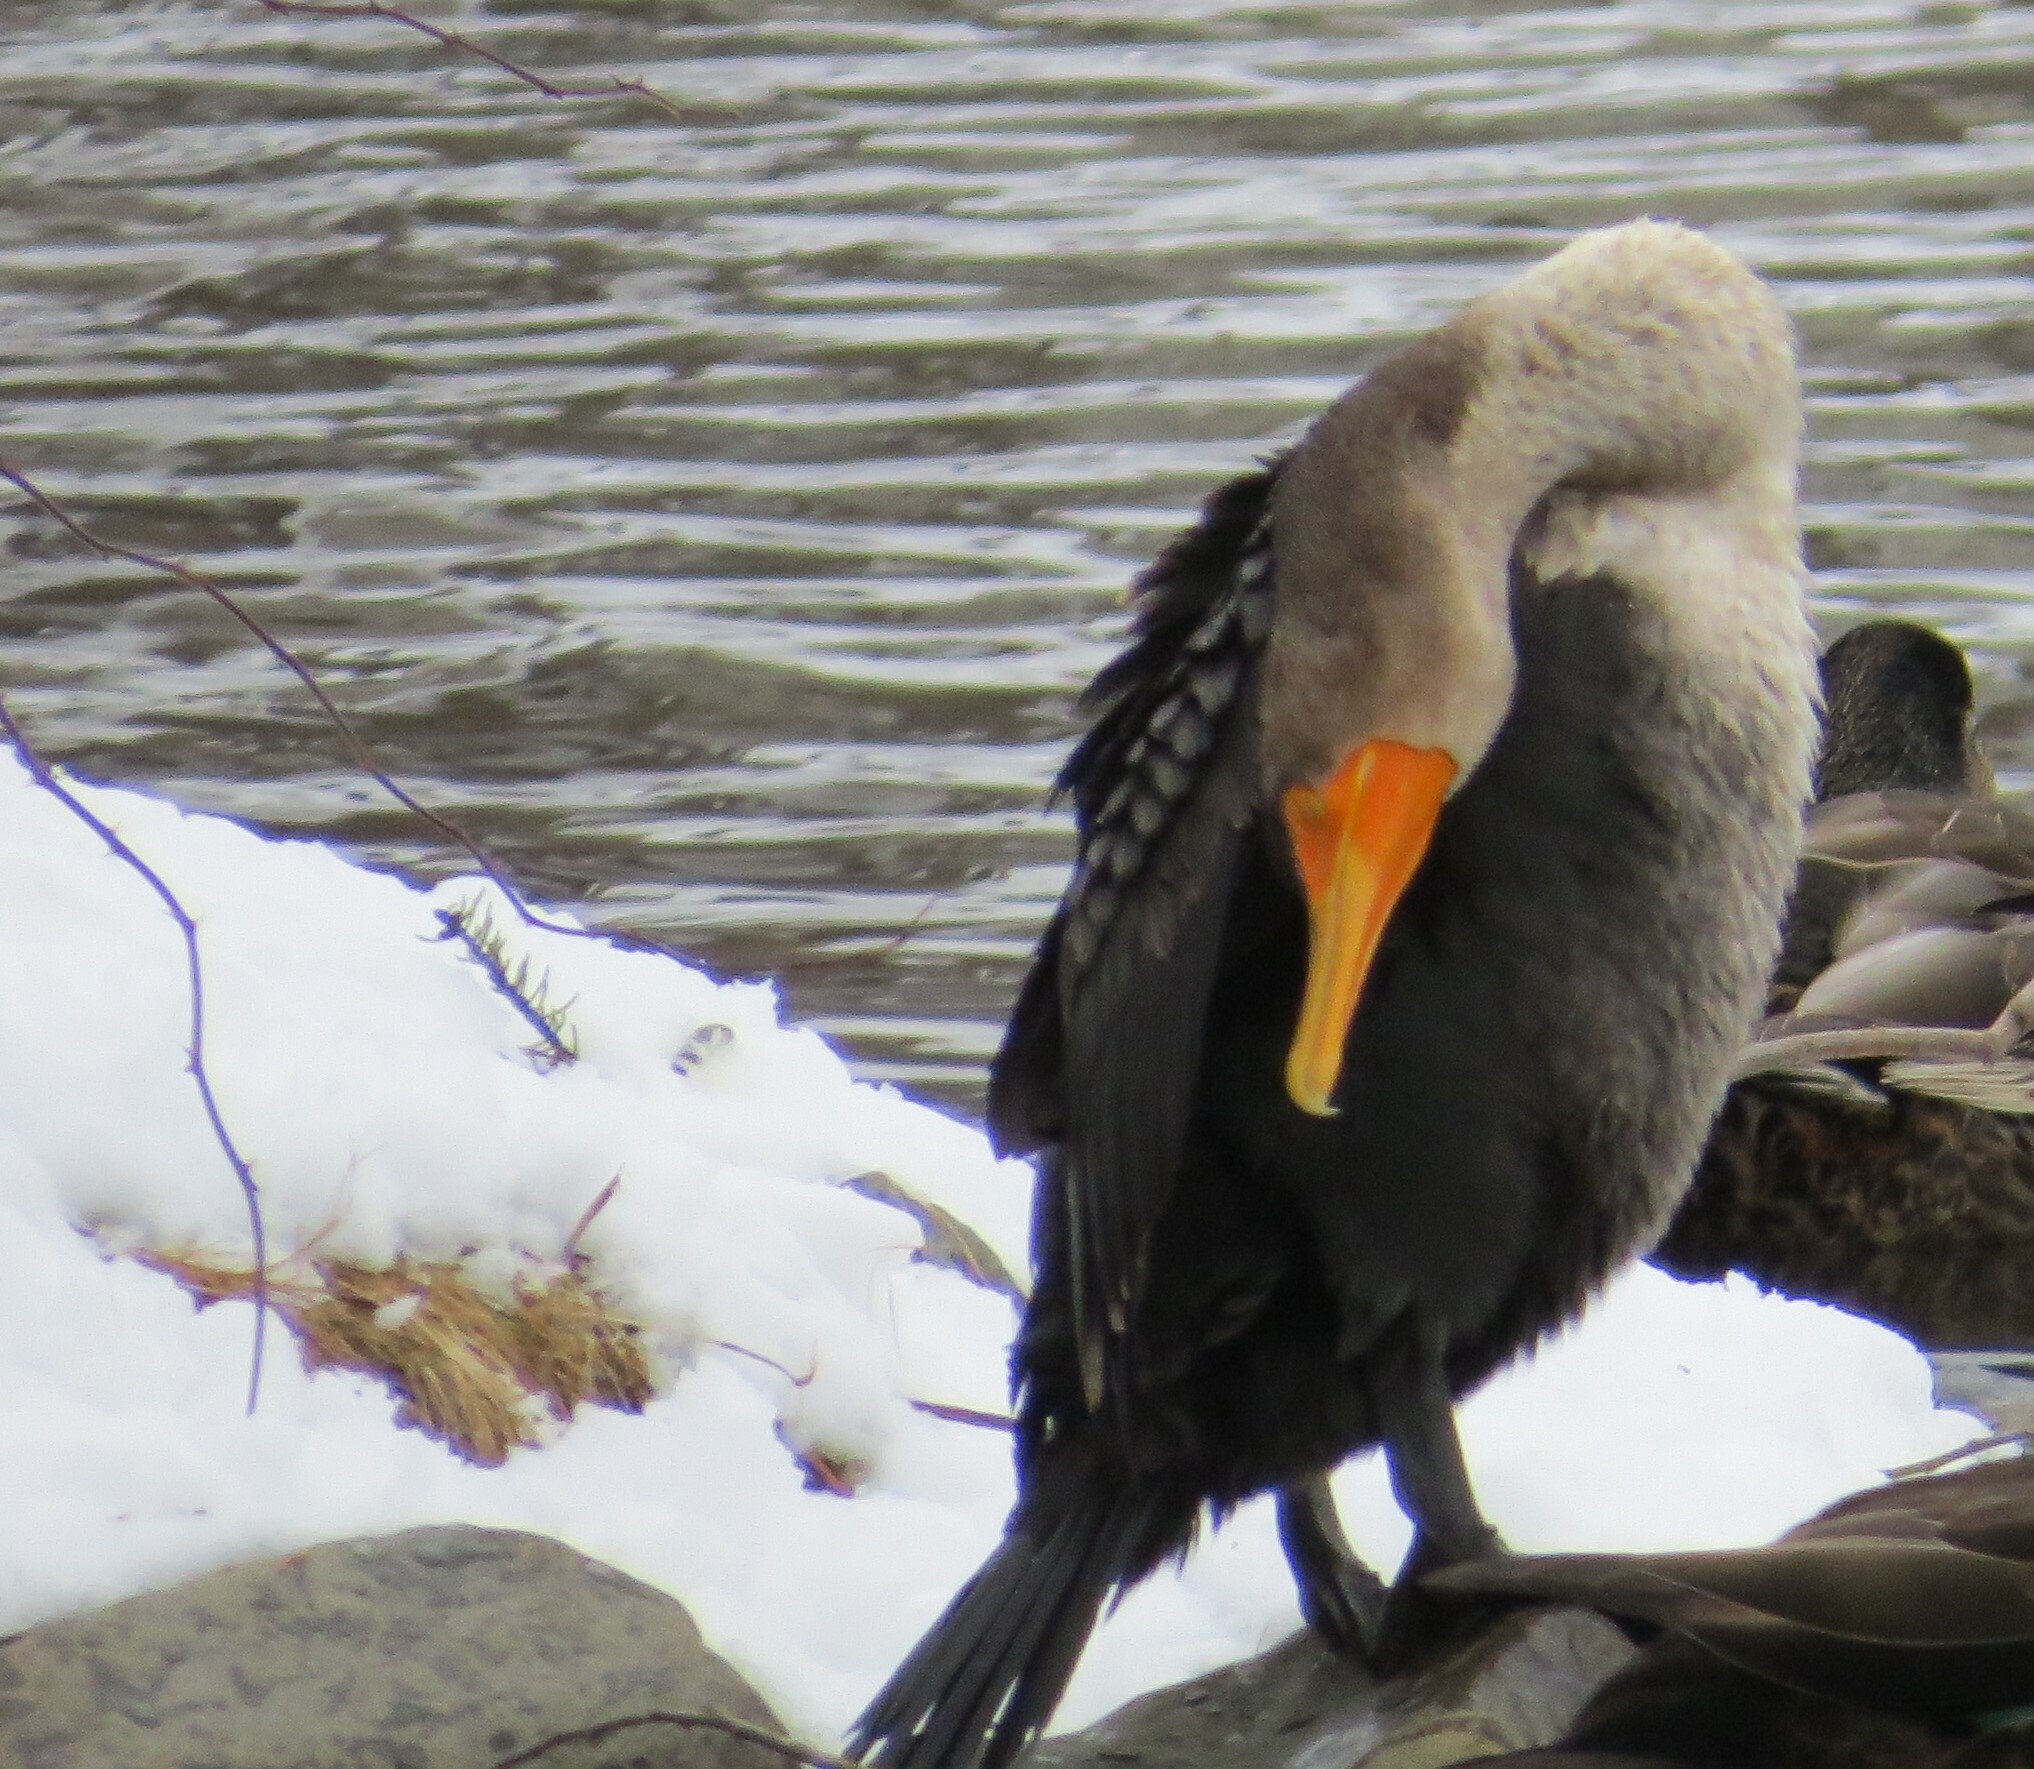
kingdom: Animalia
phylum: Chordata
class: Aves
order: Suliformes
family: Phalacrocoracidae
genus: Phalacrocorax
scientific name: Phalacrocorax auritus
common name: Double-crested cormorant
